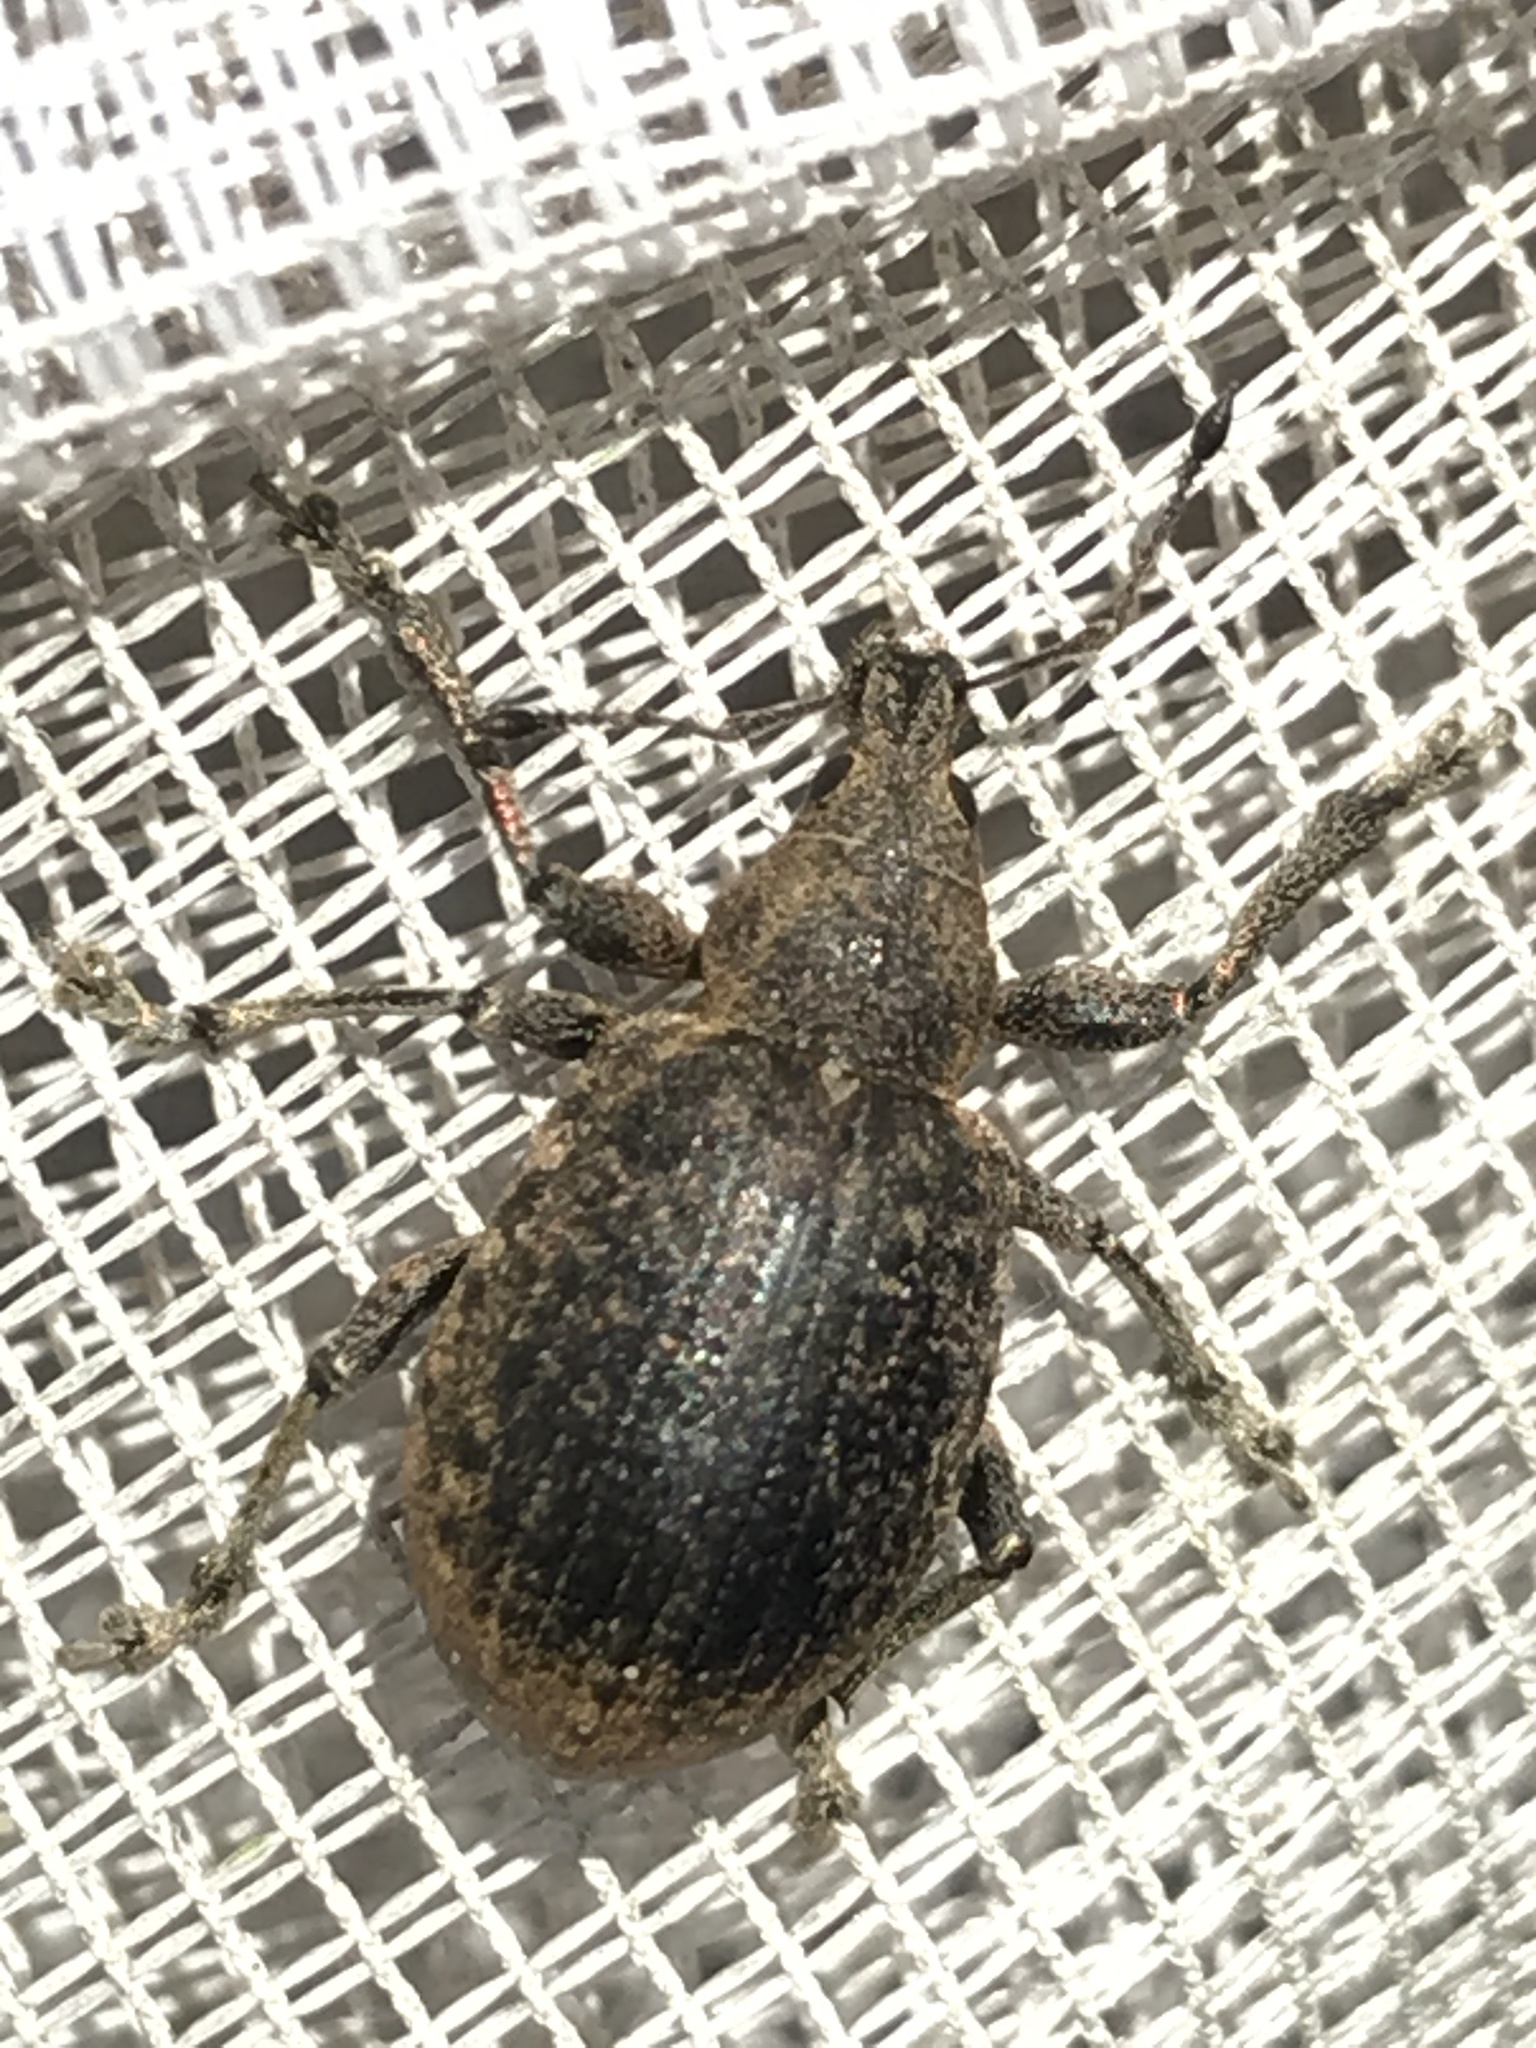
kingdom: Animalia
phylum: Arthropoda
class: Insecta
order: Coleoptera
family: Curculionidae
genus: Liophloeus
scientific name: Liophloeus tessulatus
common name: Weevil
